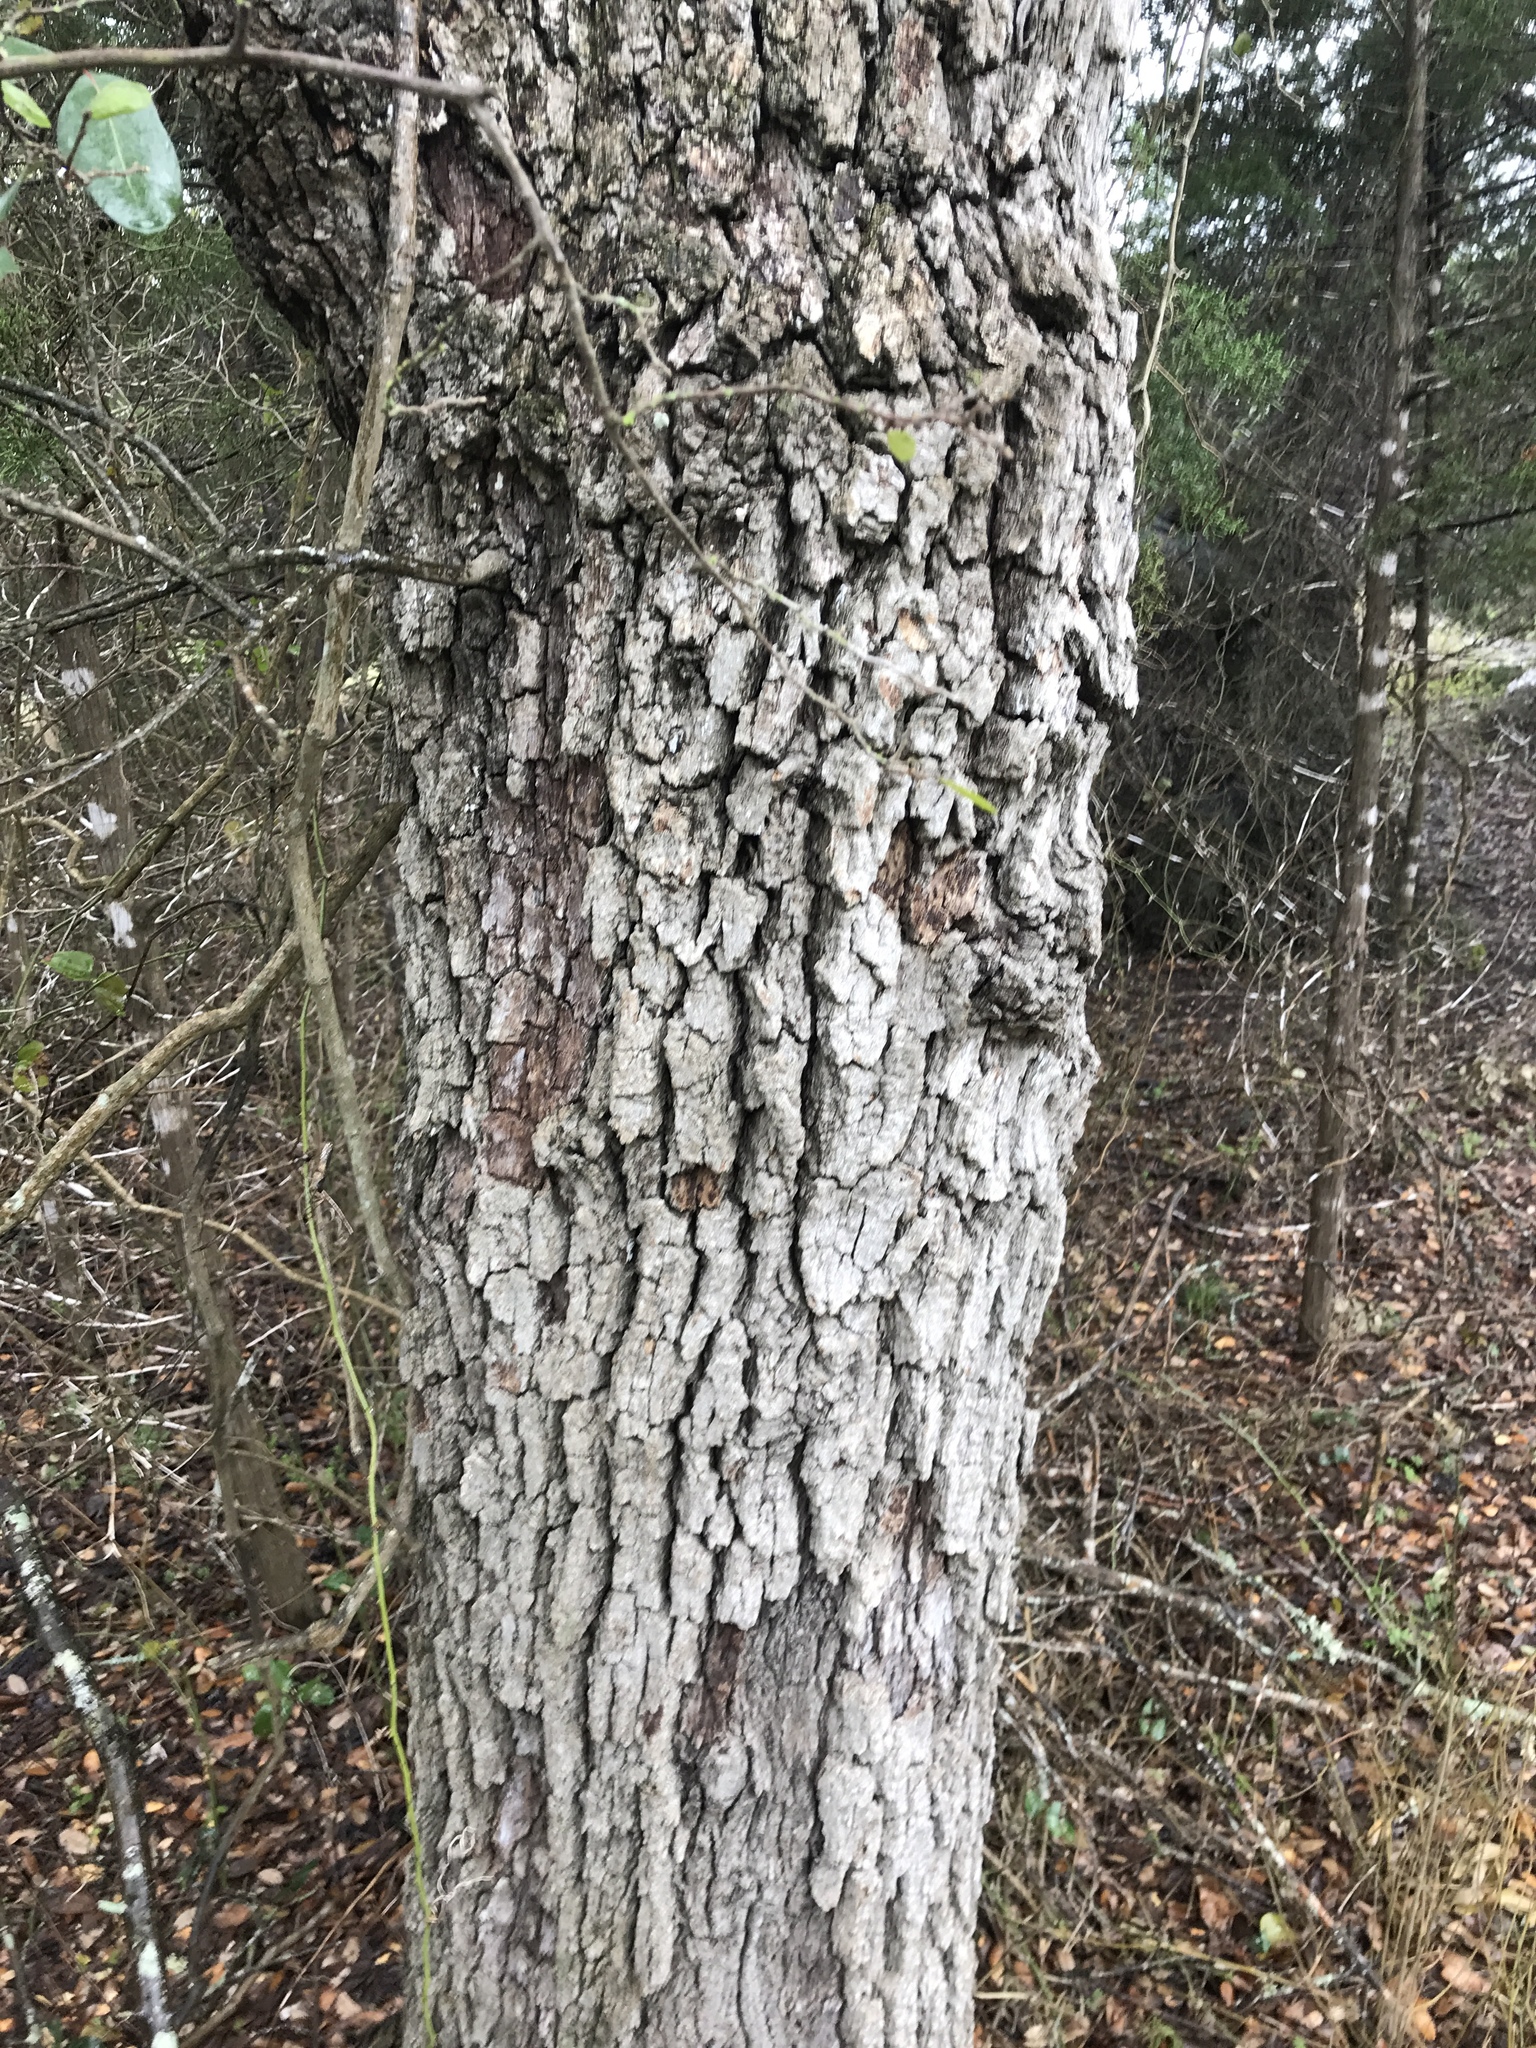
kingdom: Plantae
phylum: Tracheophyta
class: Magnoliopsida
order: Fagales
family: Fagaceae
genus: Quercus
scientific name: Quercus fusiformis
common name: Texas live oak
